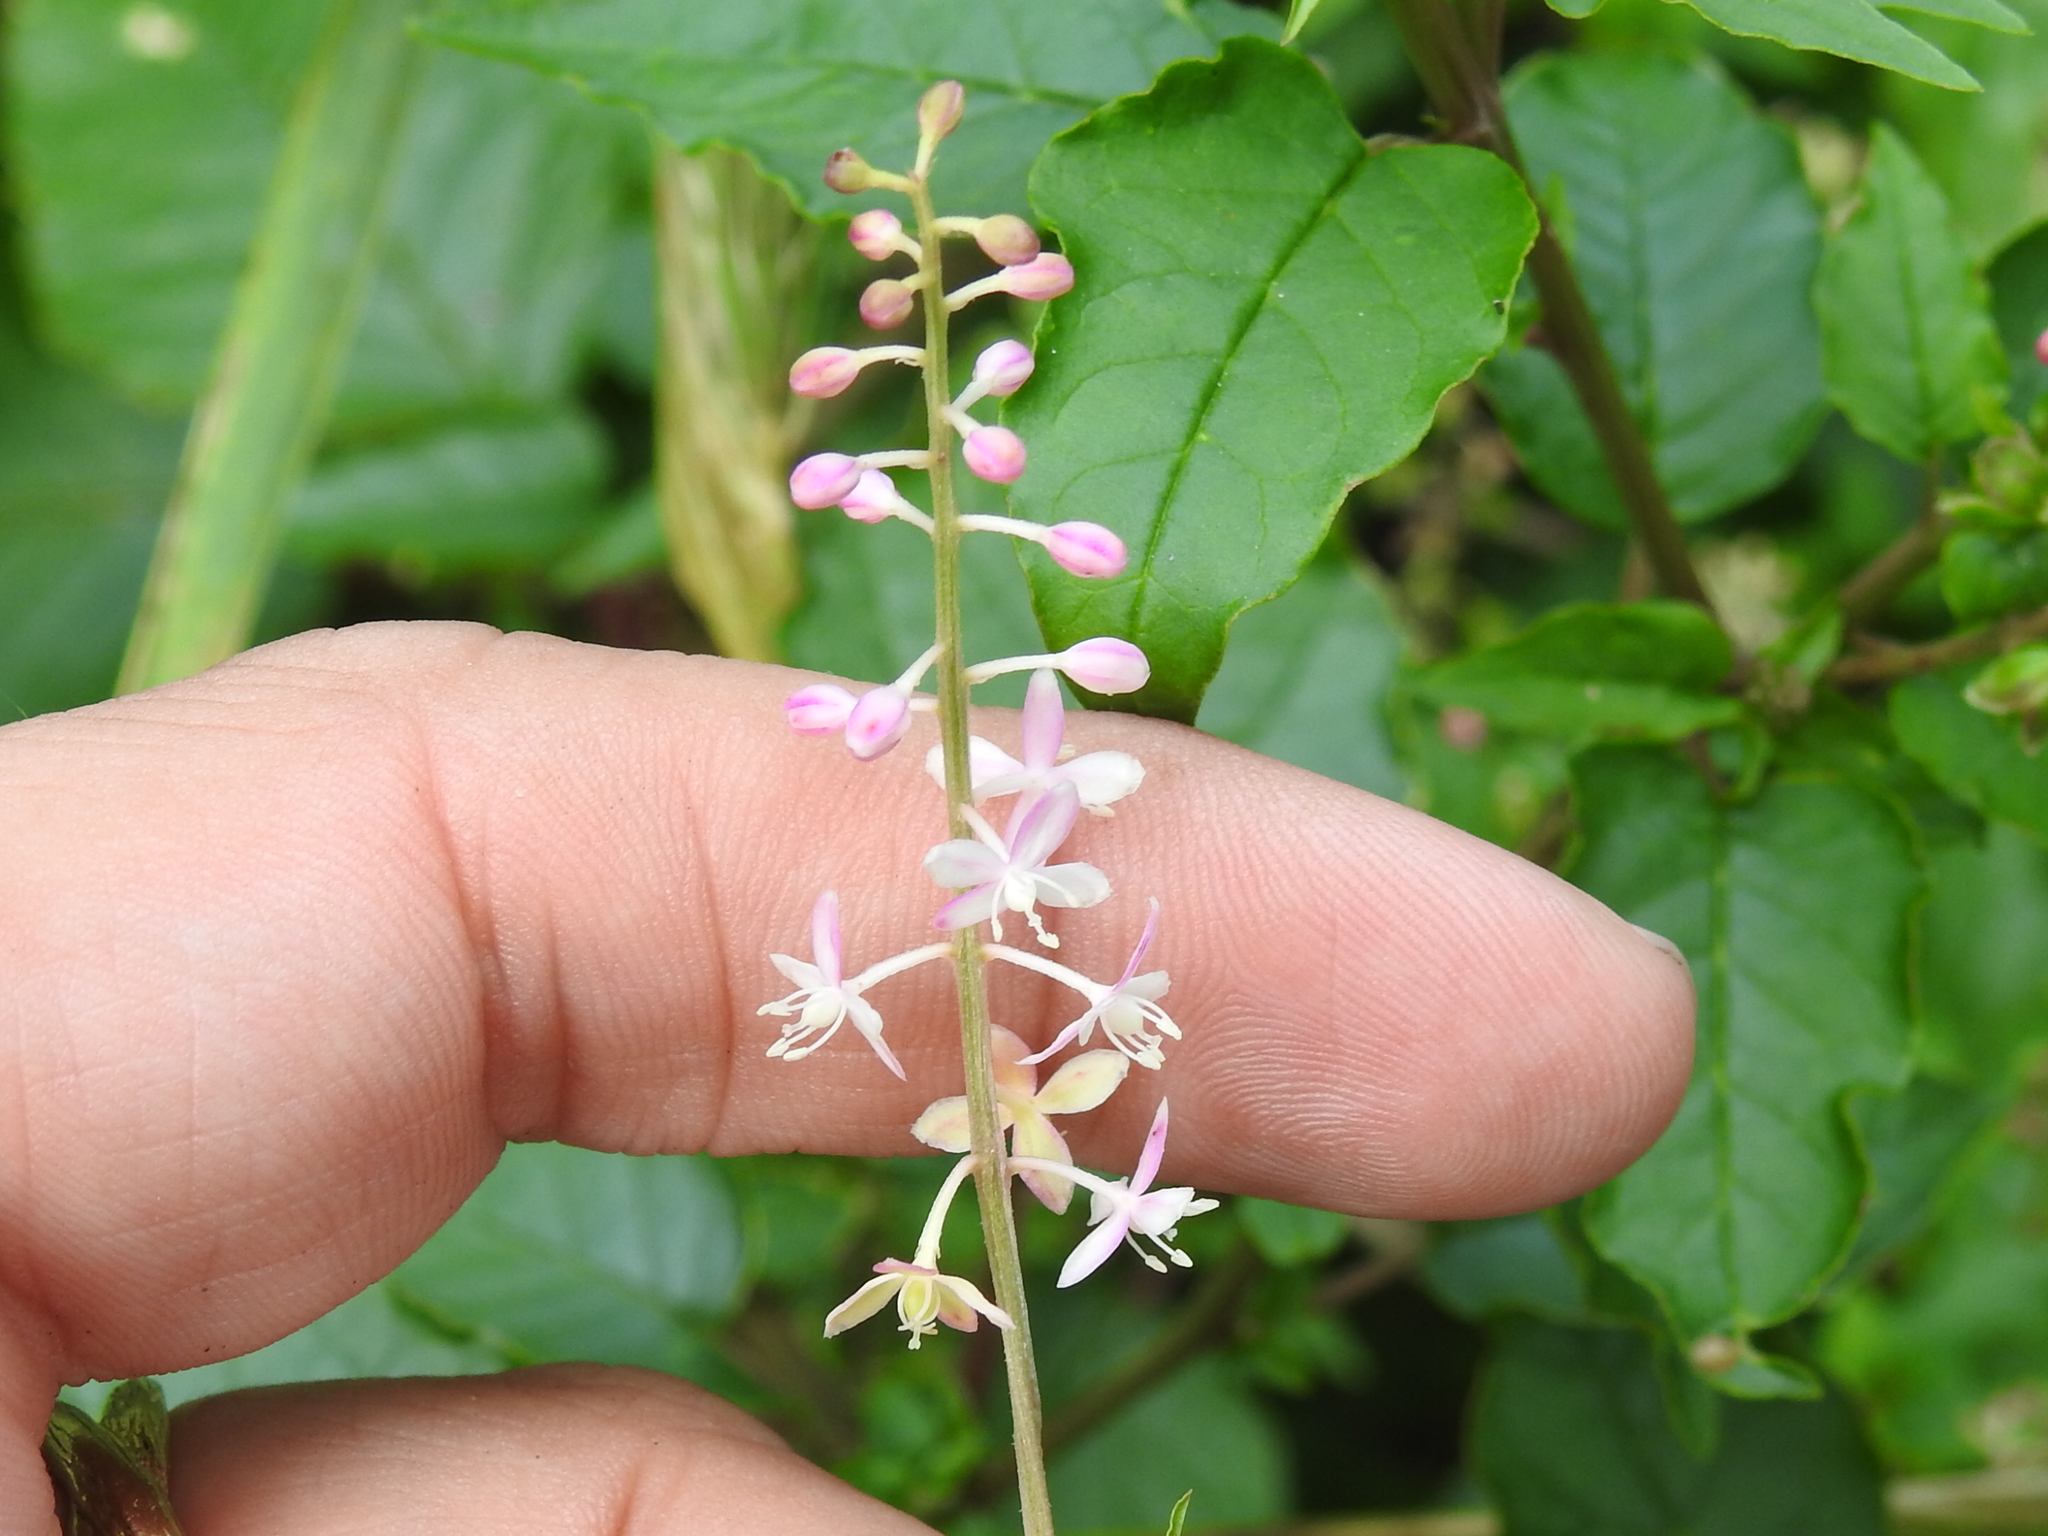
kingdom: Plantae
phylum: Tracheophyta
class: Magnoliopsida
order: Caryophyllales
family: Phytolaccaceae
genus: Rivina
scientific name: Rivina humilis
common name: Rougeplant
